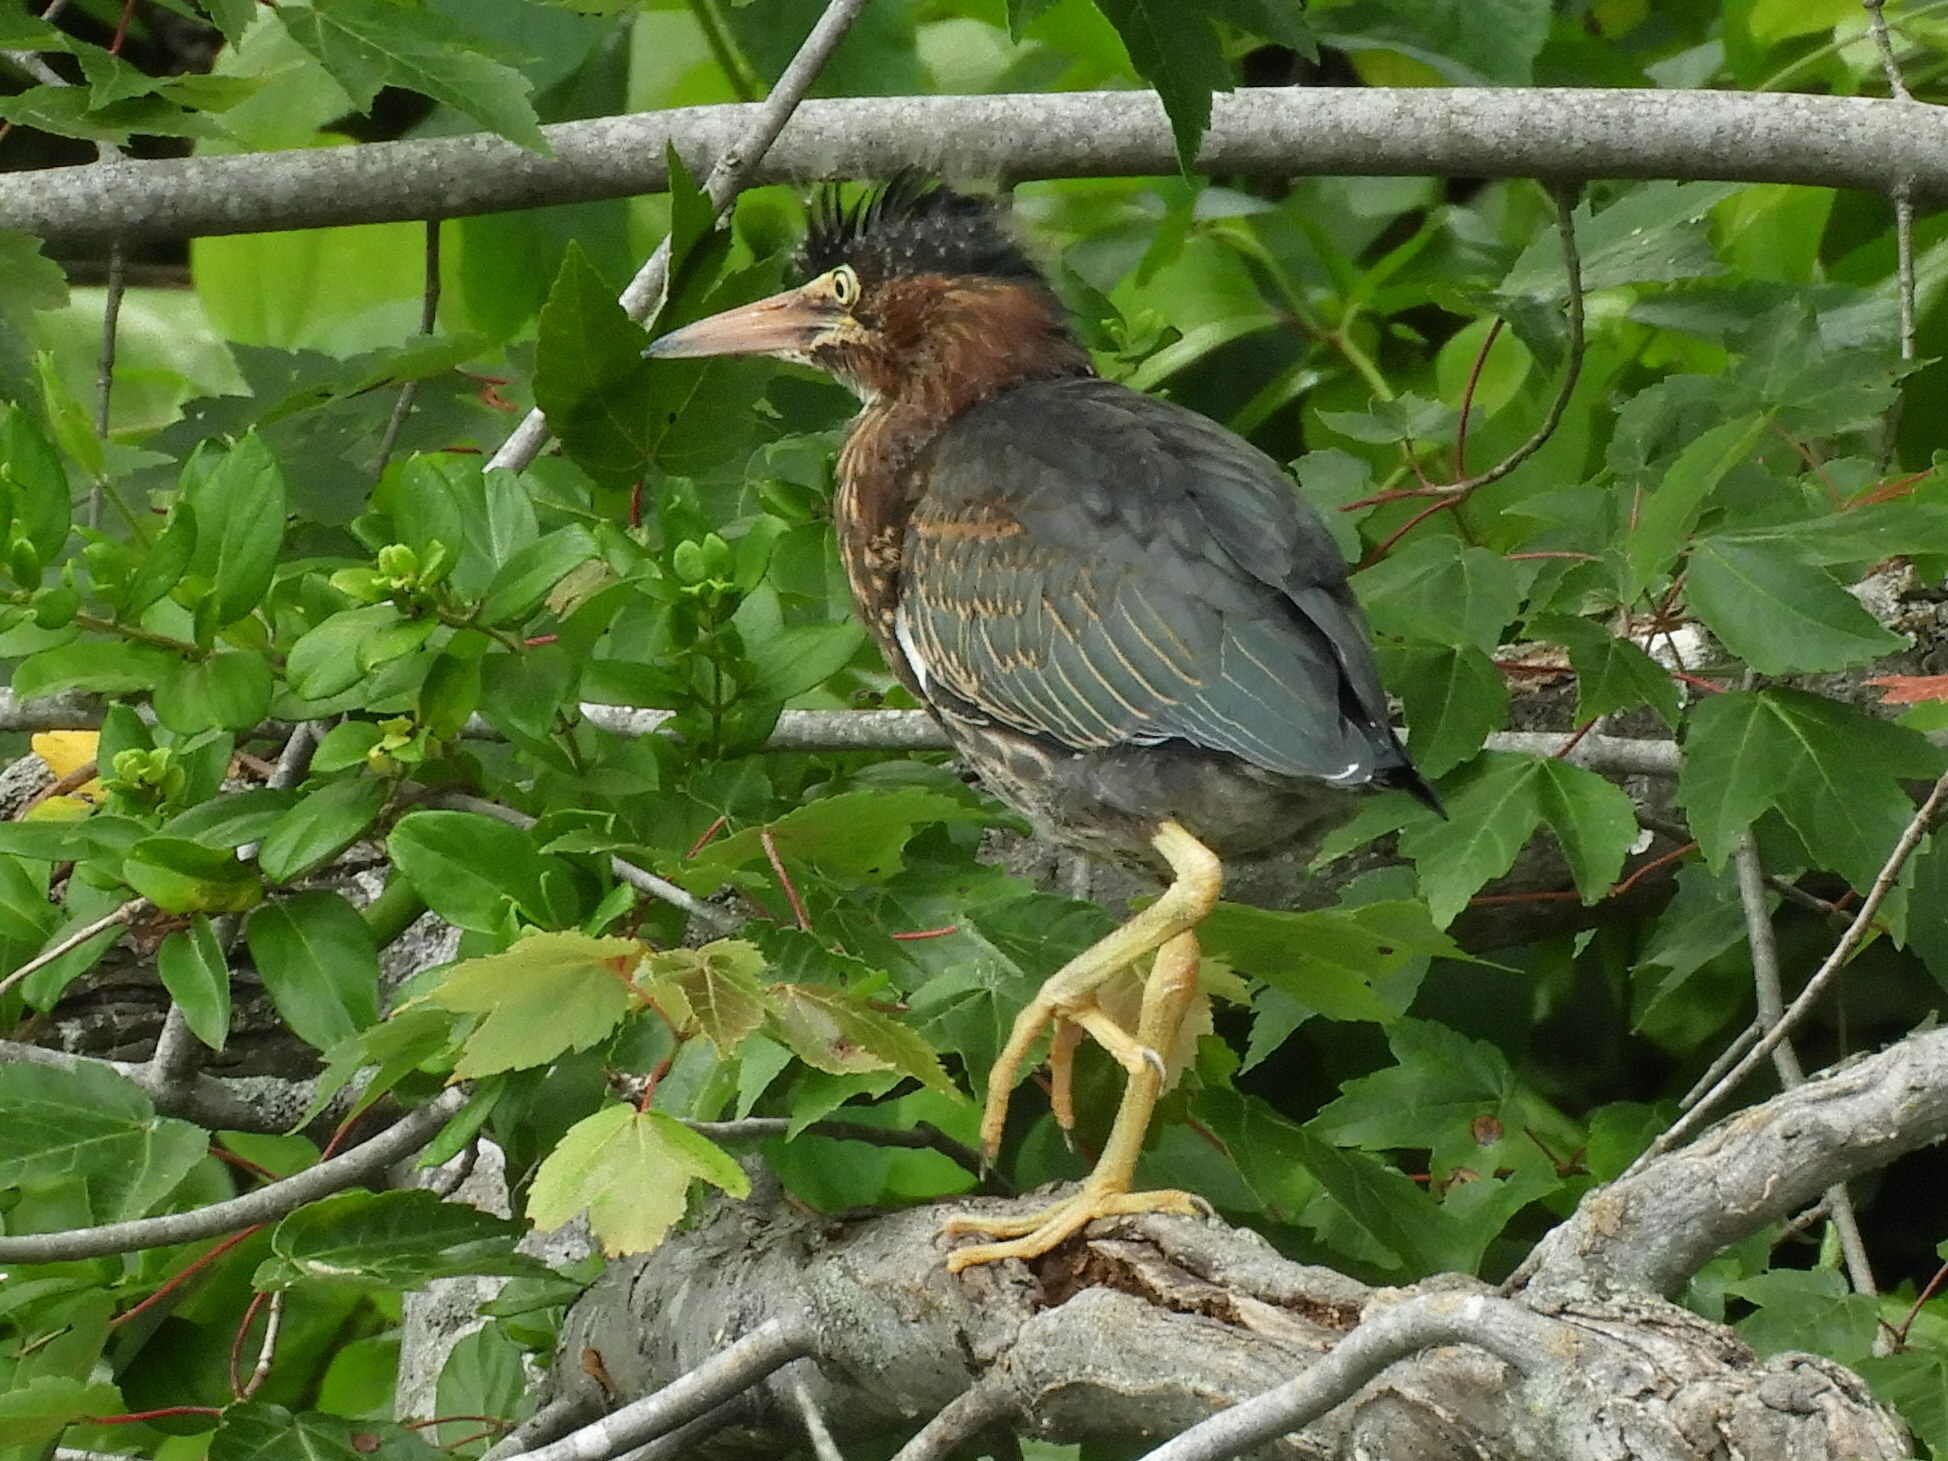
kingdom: Animalia
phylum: Chordata
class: Aves
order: Pelecaniformes
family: Ardeidae
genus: Butorides
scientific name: Butorides virescens
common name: Green heron
